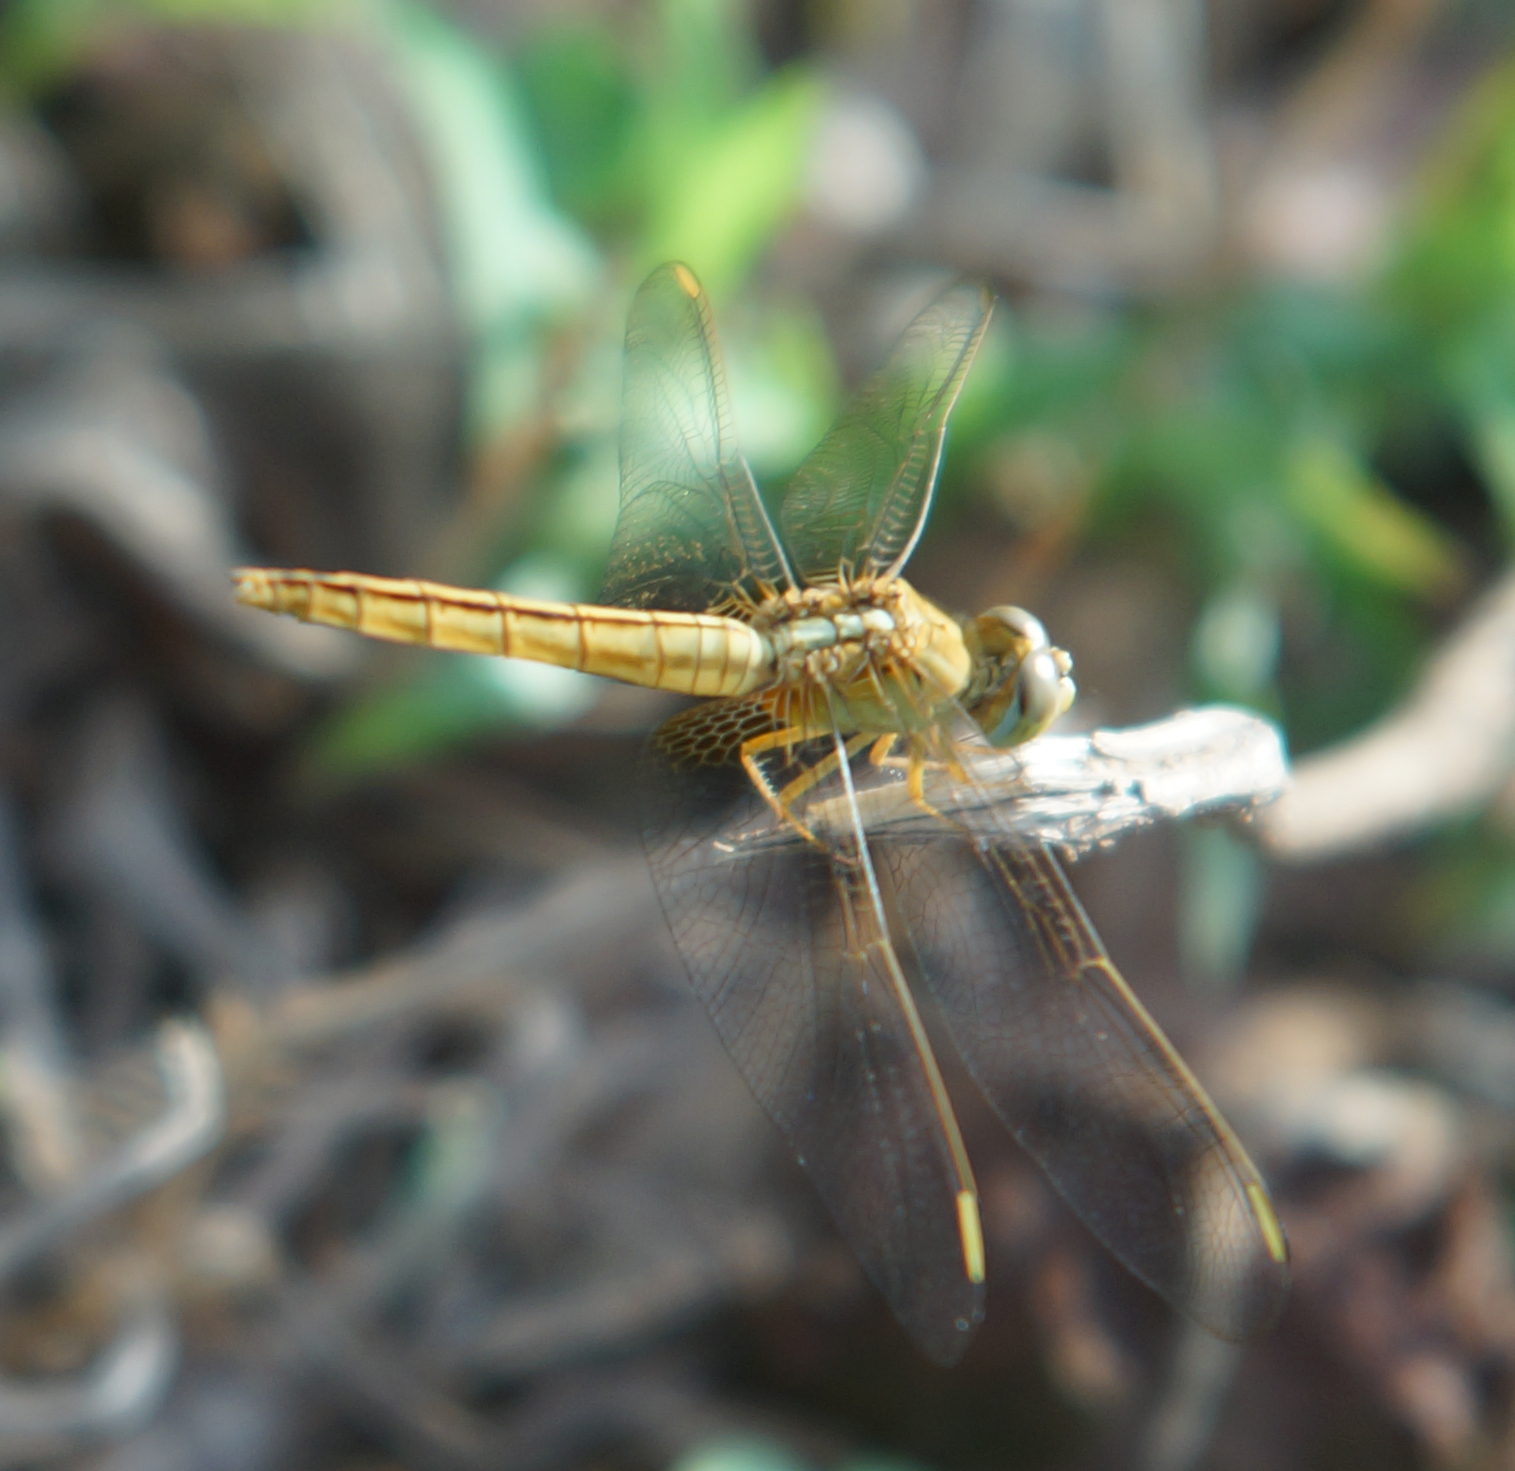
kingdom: Animalia
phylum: Arthropoda
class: Insecta
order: Odonata
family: Libellulidae
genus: Crocothemis
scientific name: Crocothemis servilia
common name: Scarlet skimmer
